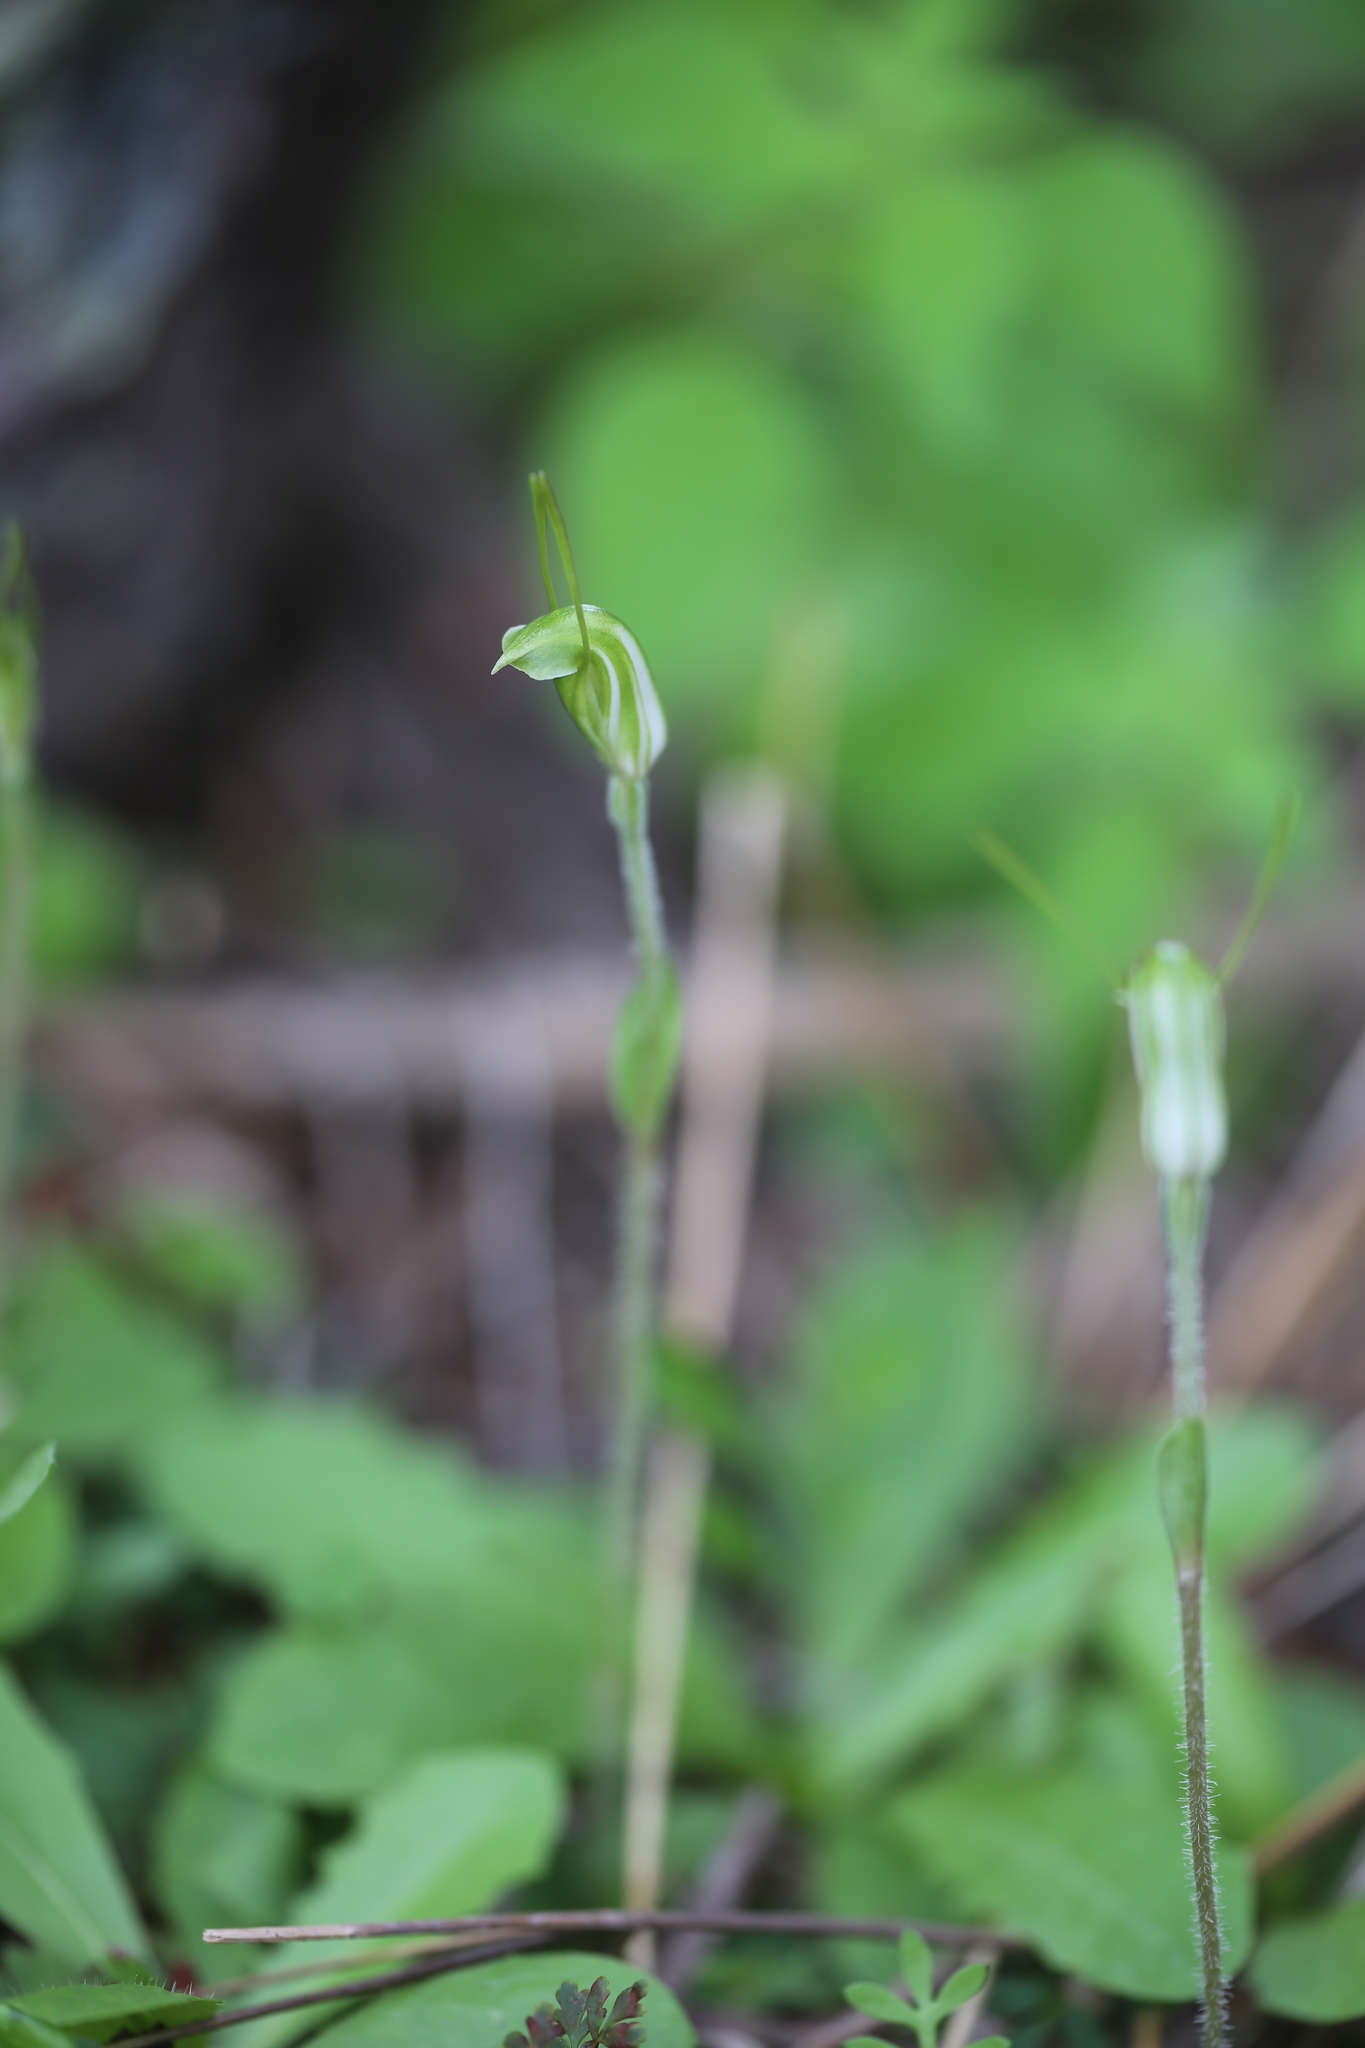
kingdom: Plantae
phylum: Tracheophyta
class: Liliopsida
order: Asparagales
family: Orchidaceae
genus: Pterostylis
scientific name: Pterostylis setulosa
